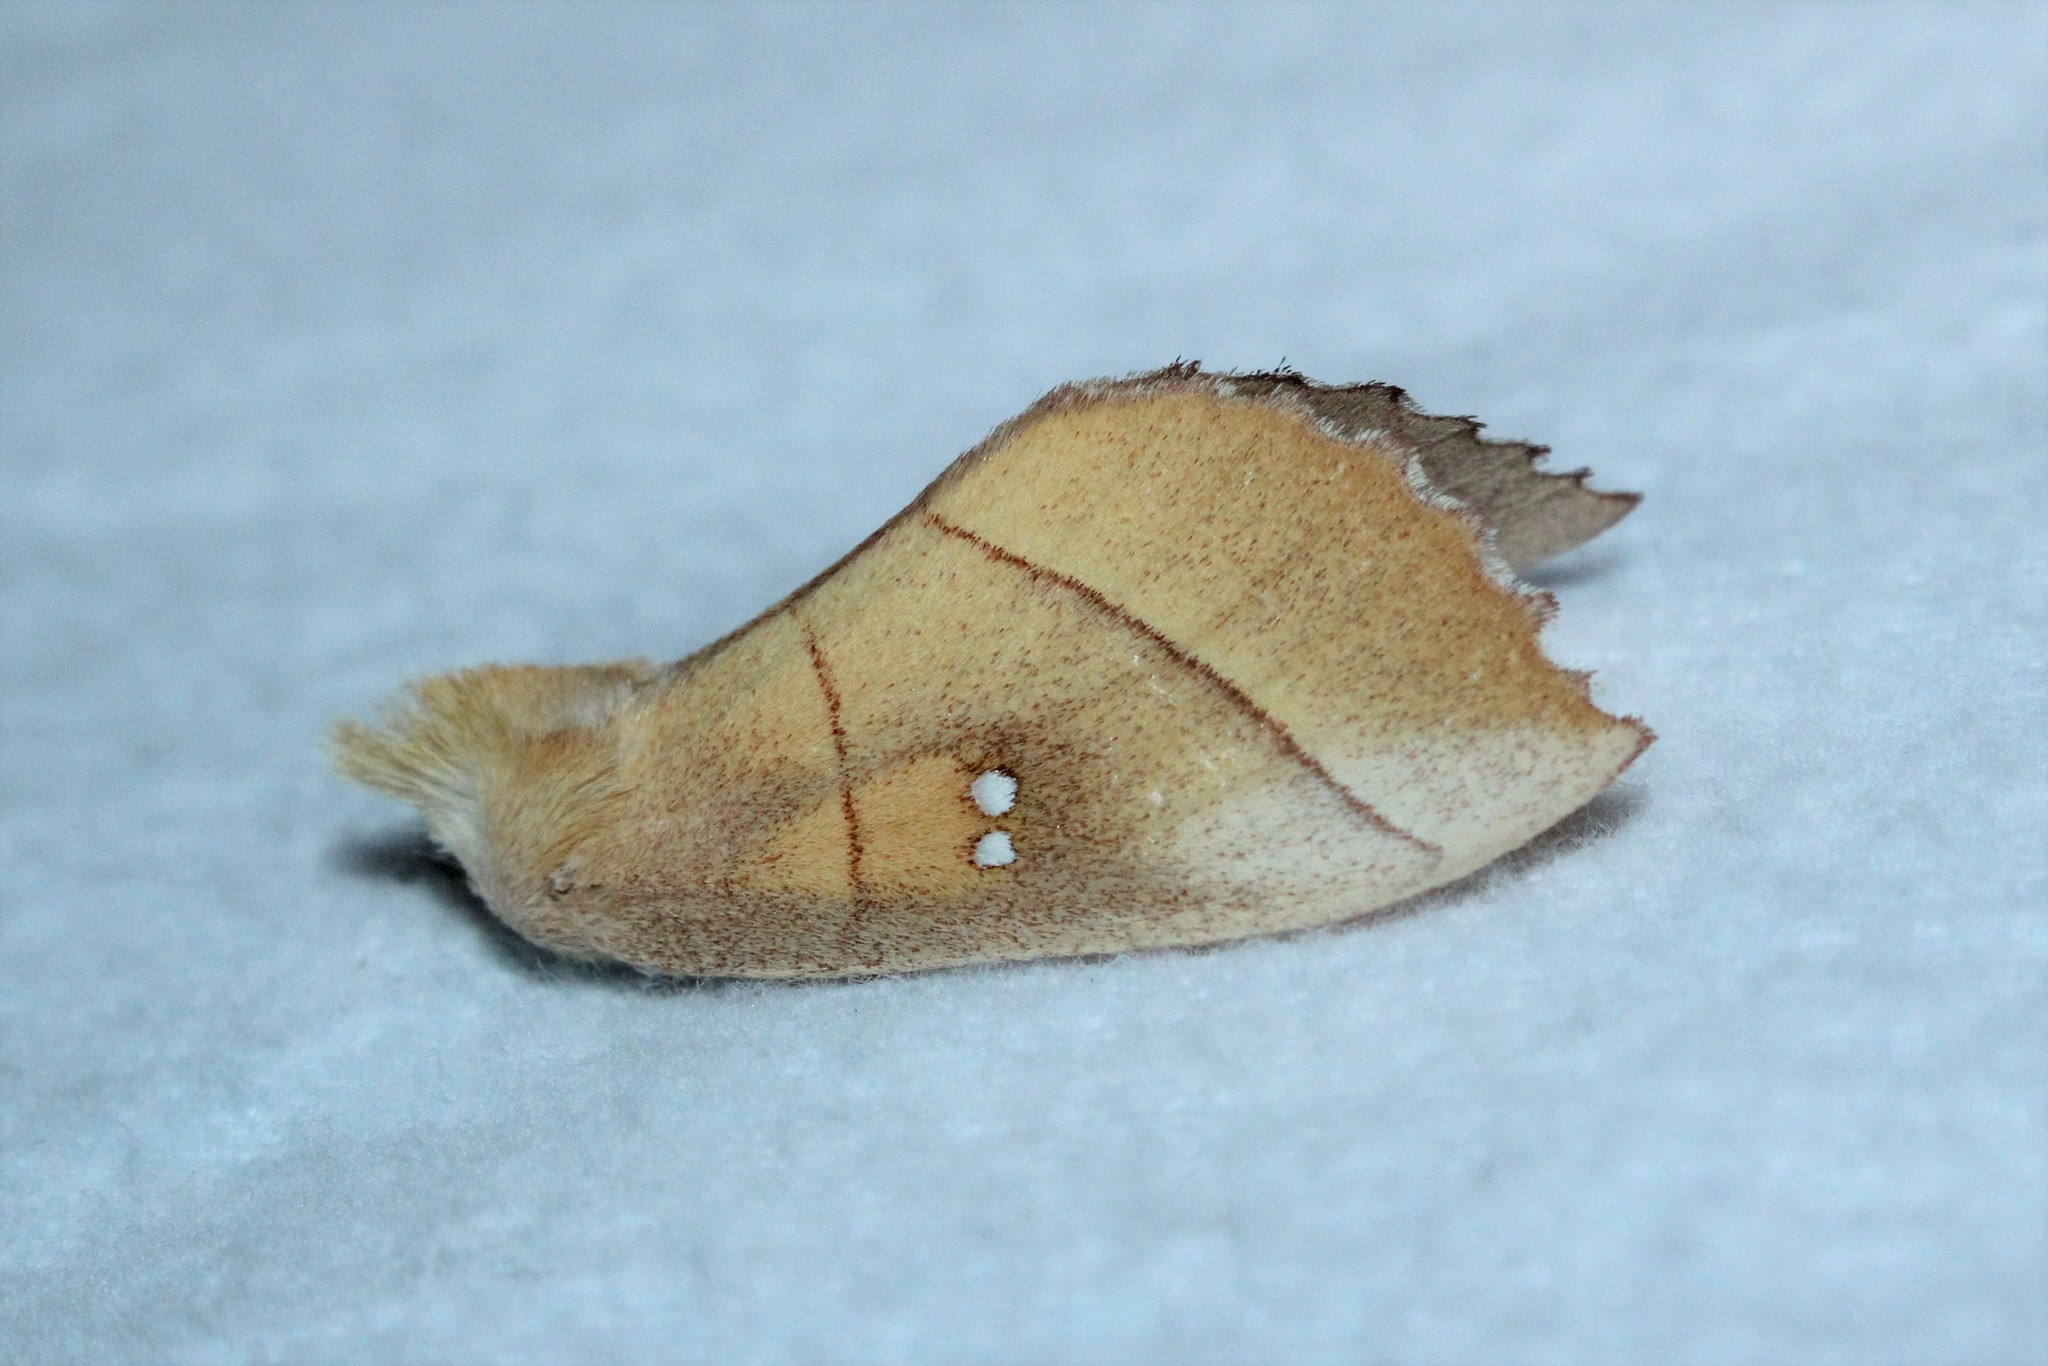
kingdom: Animalia
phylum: Arthropoda
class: Insecta
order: Lepidoptera
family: Notodontidae
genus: Nadata
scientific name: Nadata gibbosa
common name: White-dotted prominent
